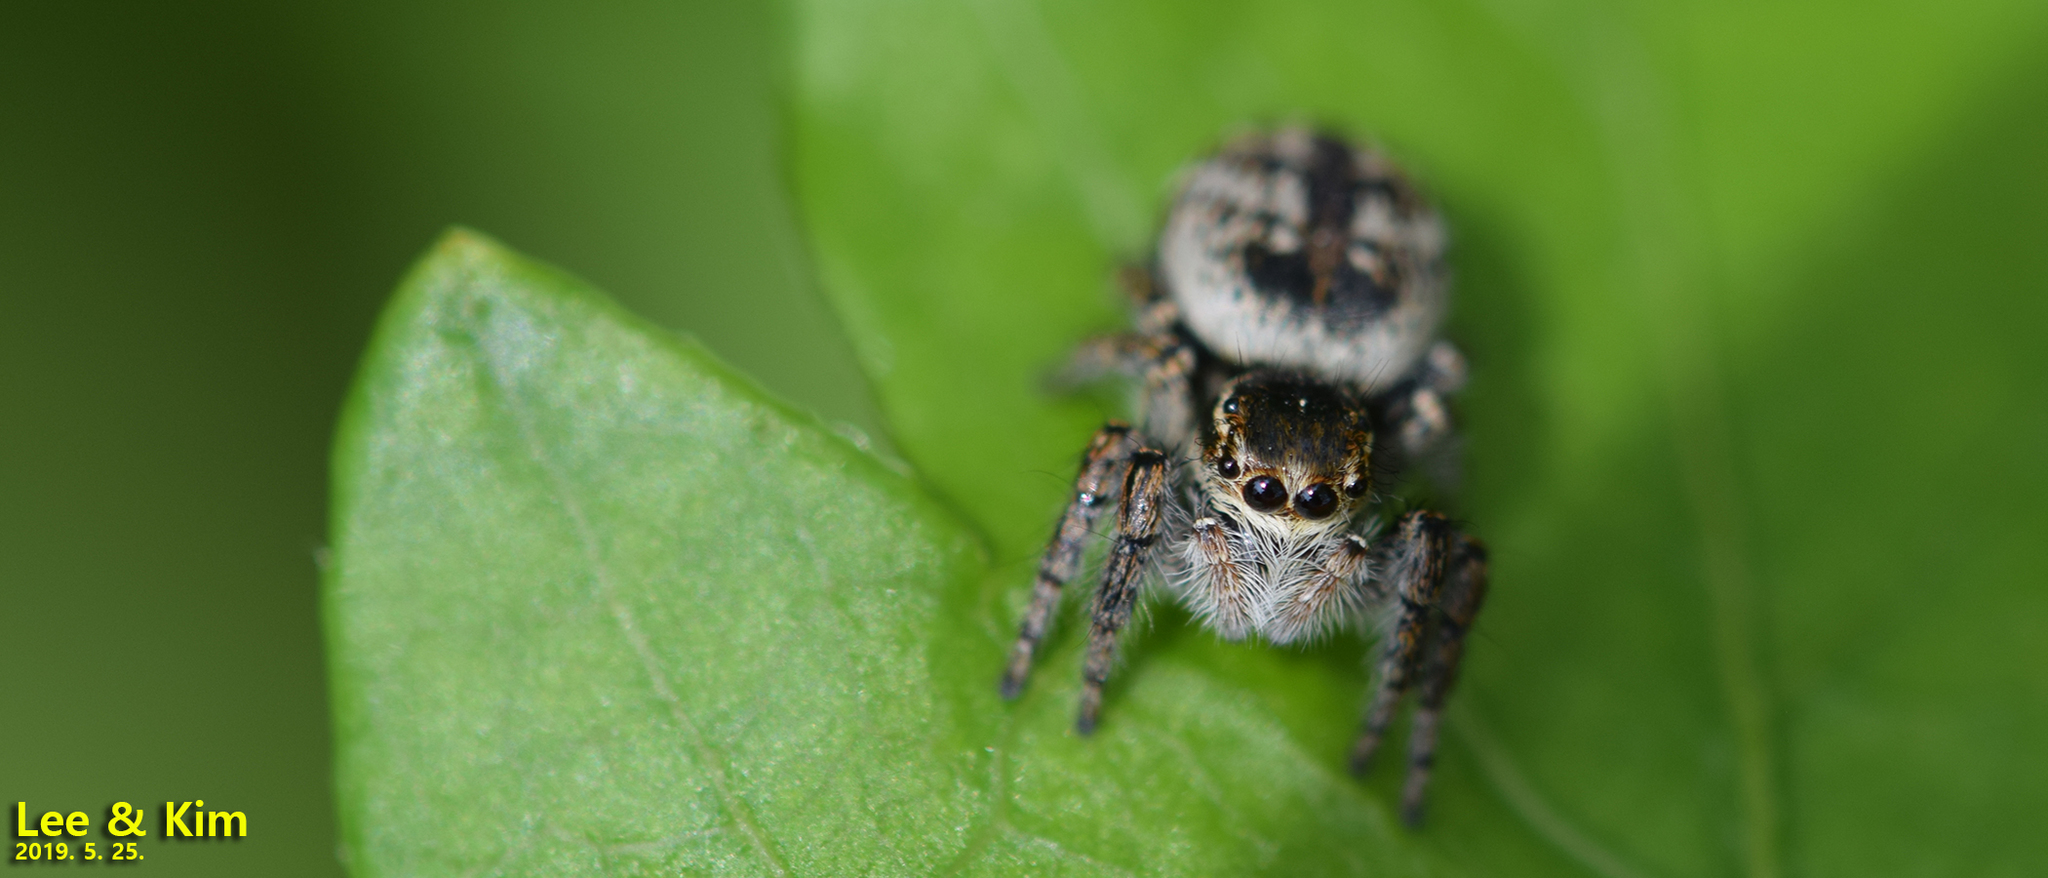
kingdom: Animalia
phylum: Arthropoda
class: Arachnida
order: Araneae
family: Salticidae
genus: Carrhotus
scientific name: Carrhotus xanthogramma
